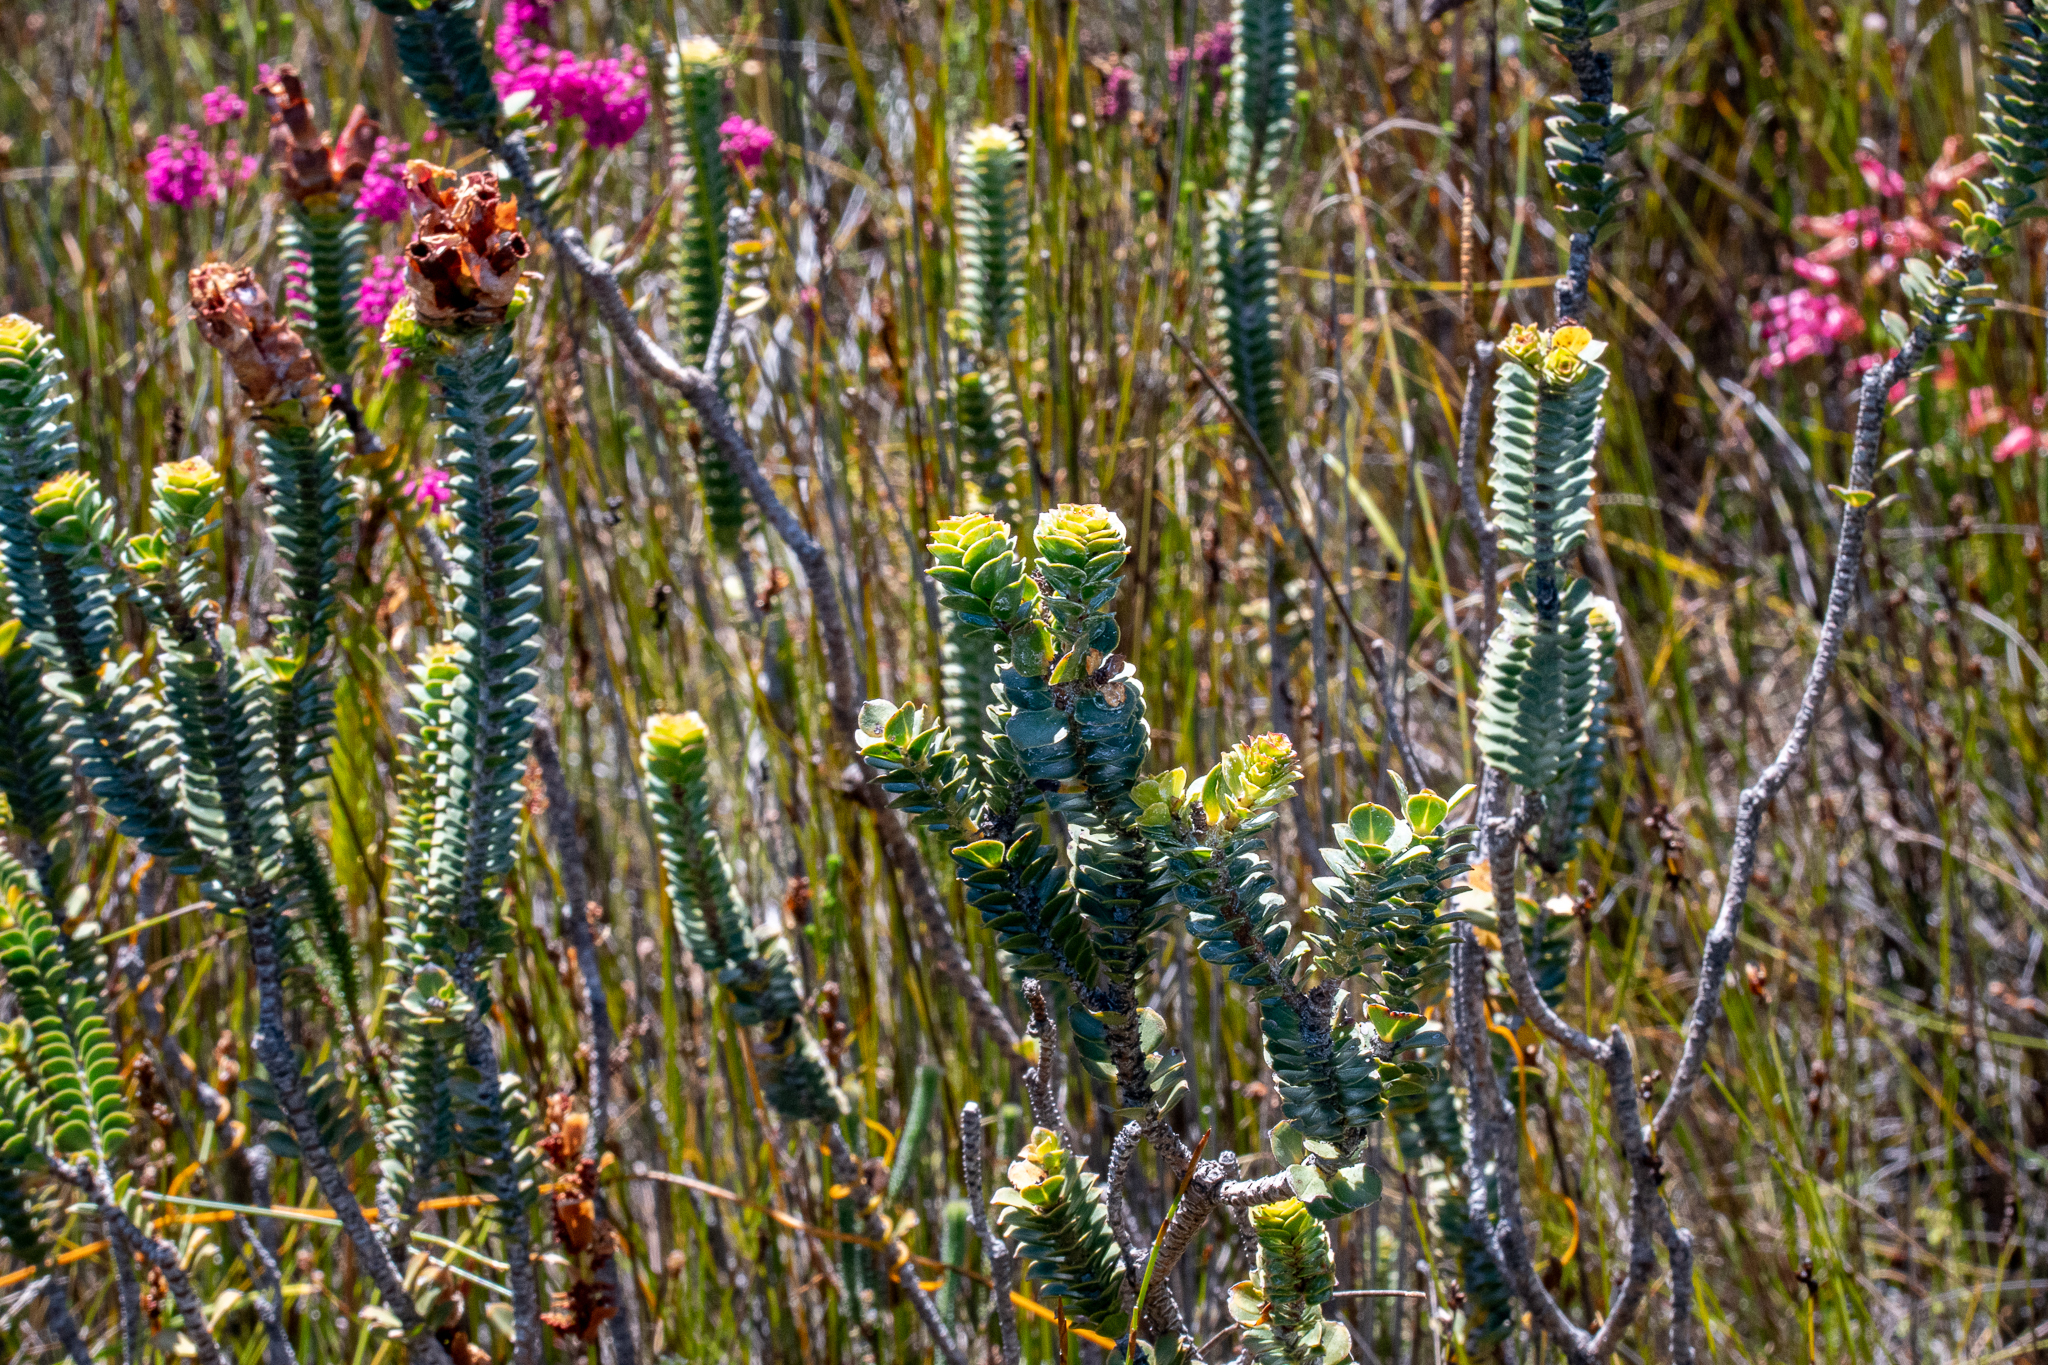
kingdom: Plantae
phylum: Tracheophyta
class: Magnoliopsida
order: Myrtales
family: Penaeaceae
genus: Saltera
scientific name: Saltera sarcocolla
